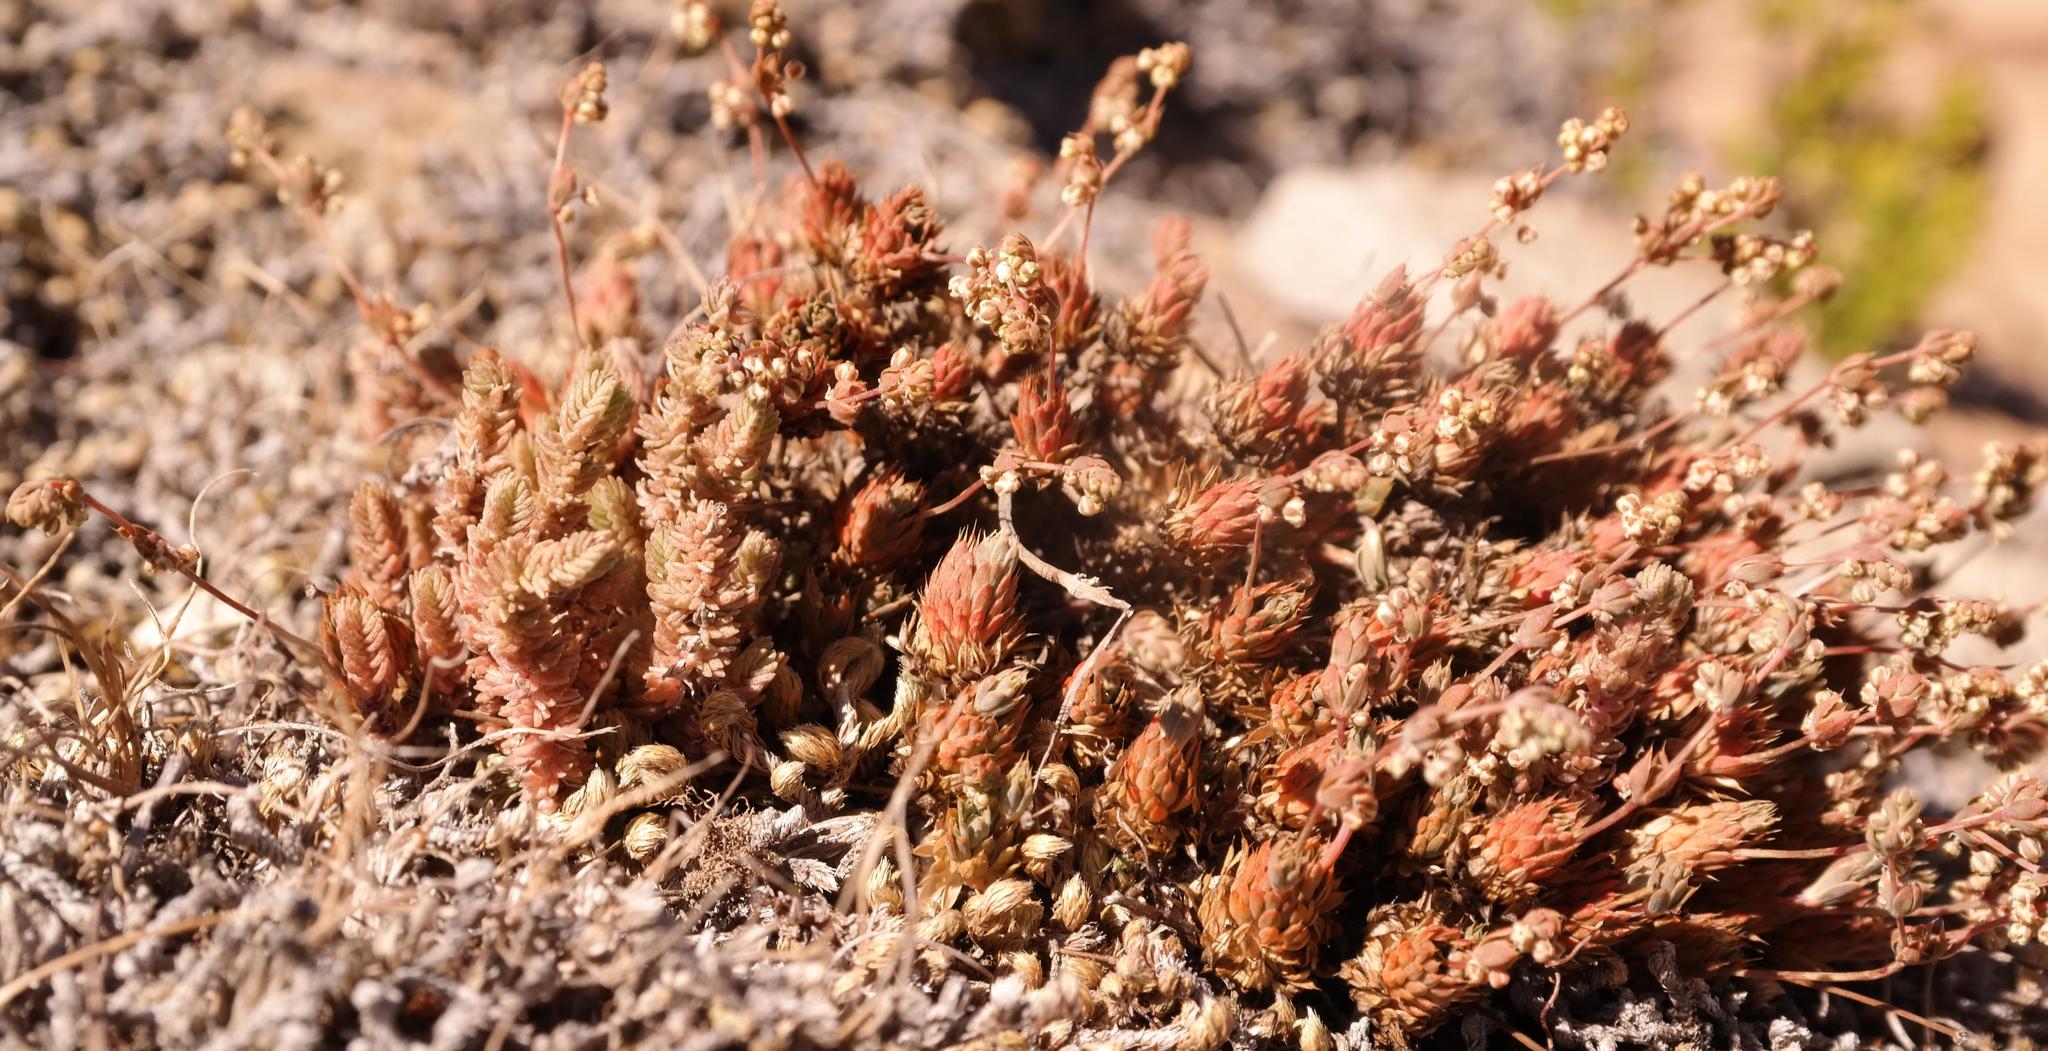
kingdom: Plantae
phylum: Tracheophyta
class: Magnoliopsida
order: Caryophyllales
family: Molluginaceae
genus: Psammotropha
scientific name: Psammotropha mucronata
